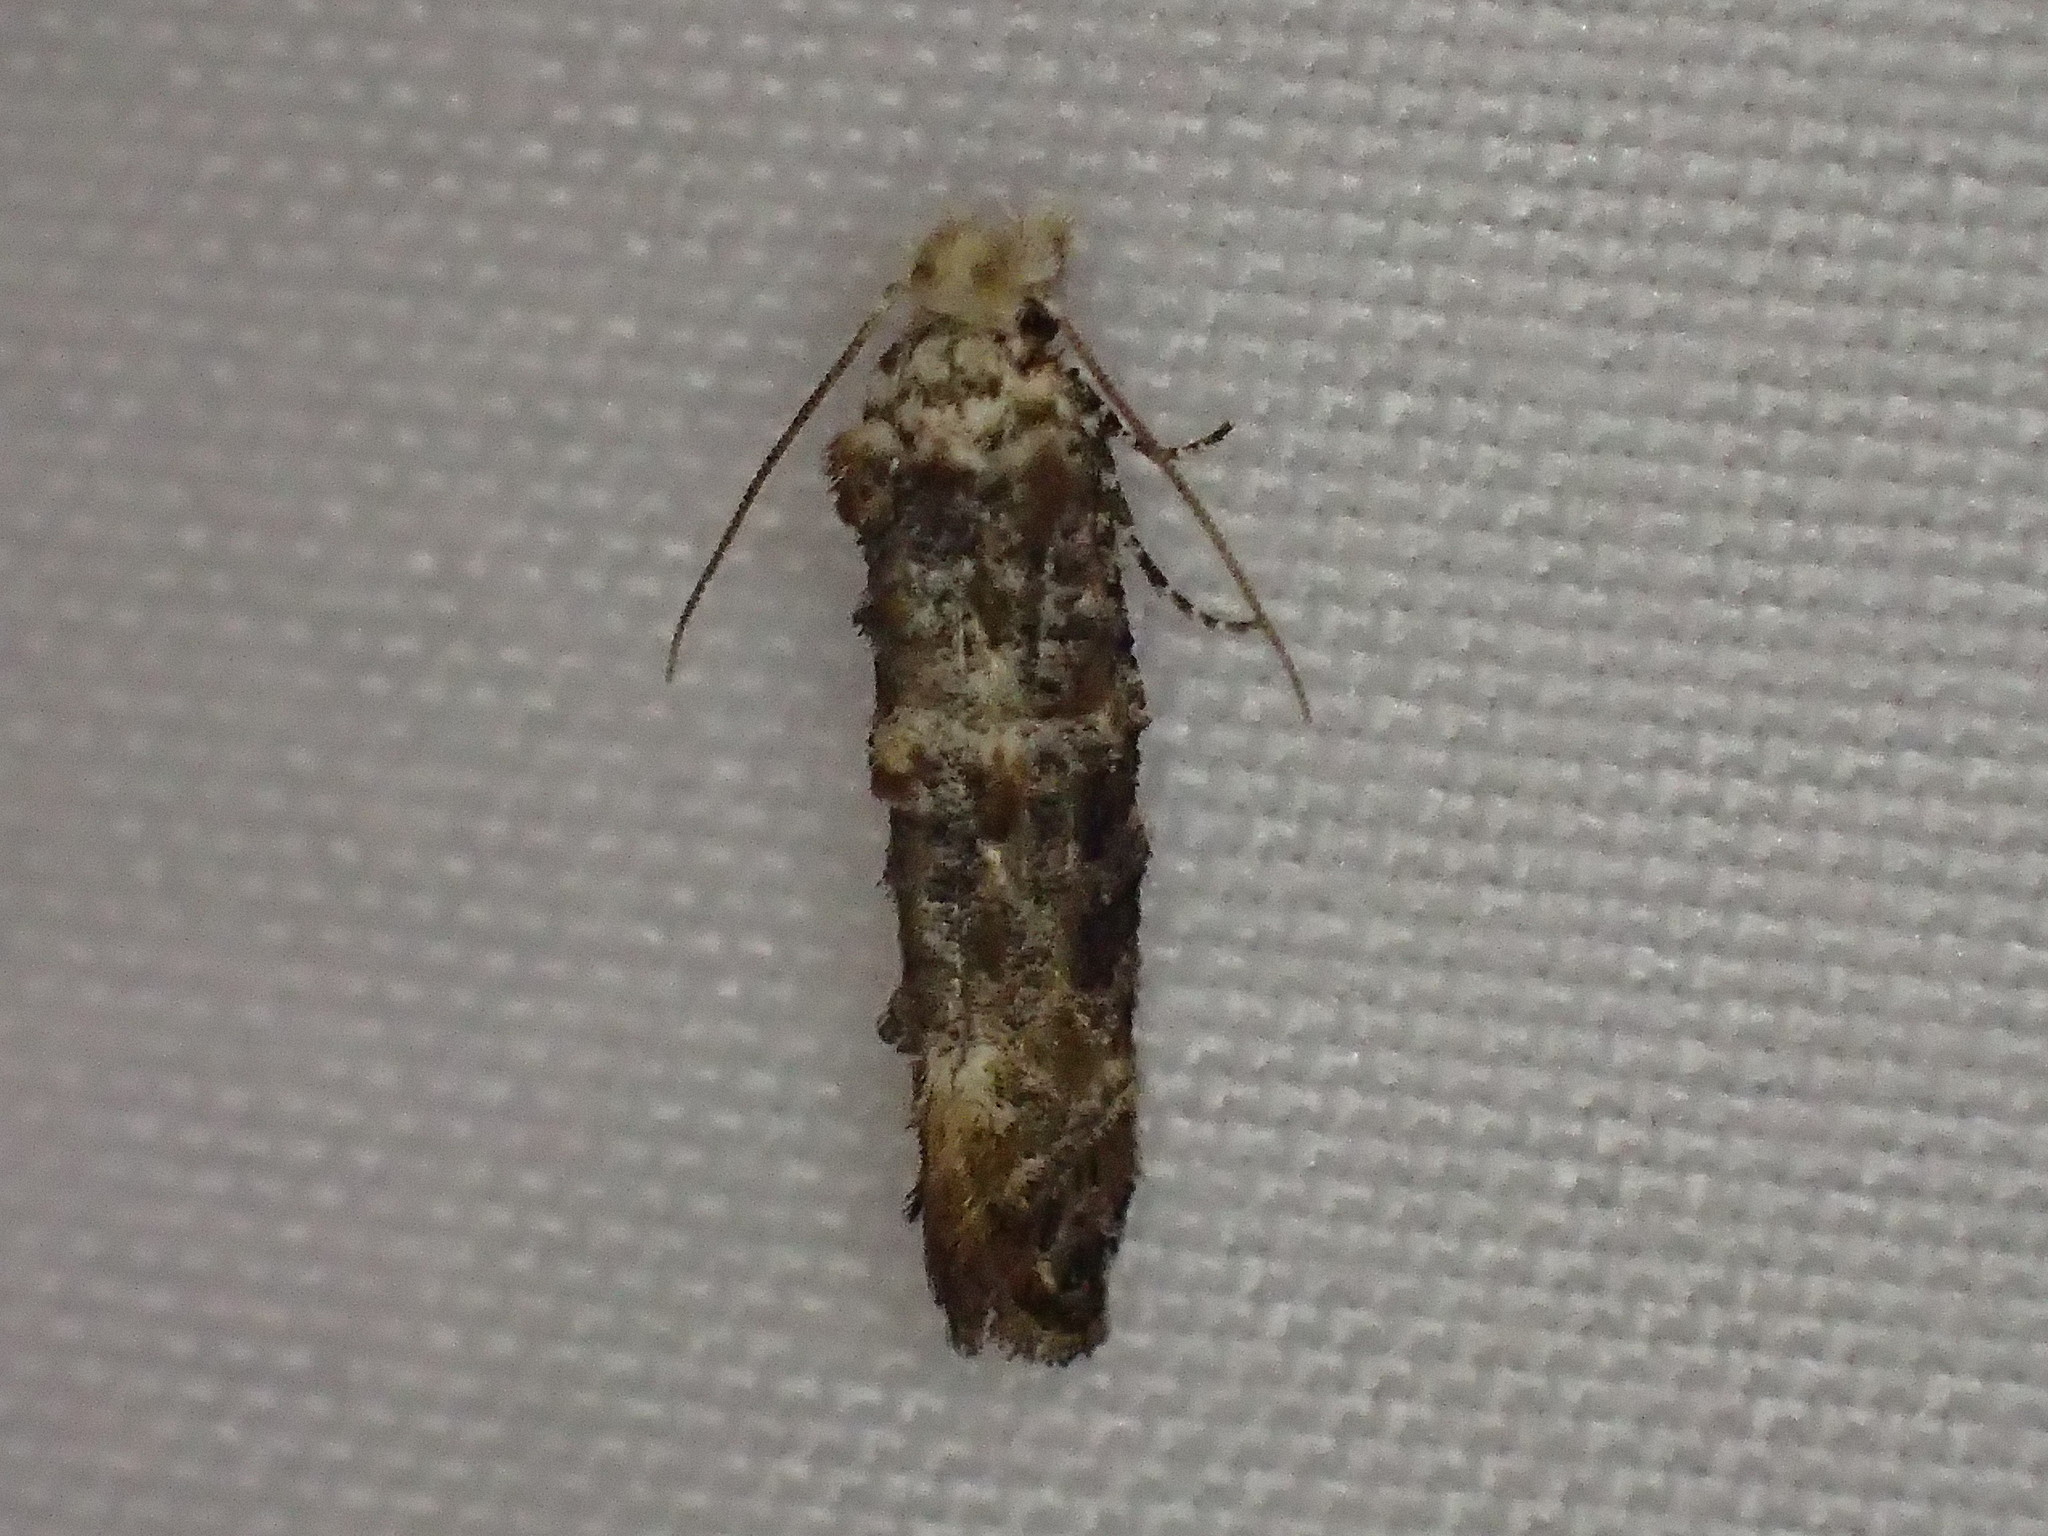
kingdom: Animalia
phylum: Arthropoda
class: Insecta
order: Lepidoptera
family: Tineidae
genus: Xylesthia
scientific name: Xylesthia pruniramiella
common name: Clemens' bark moth
